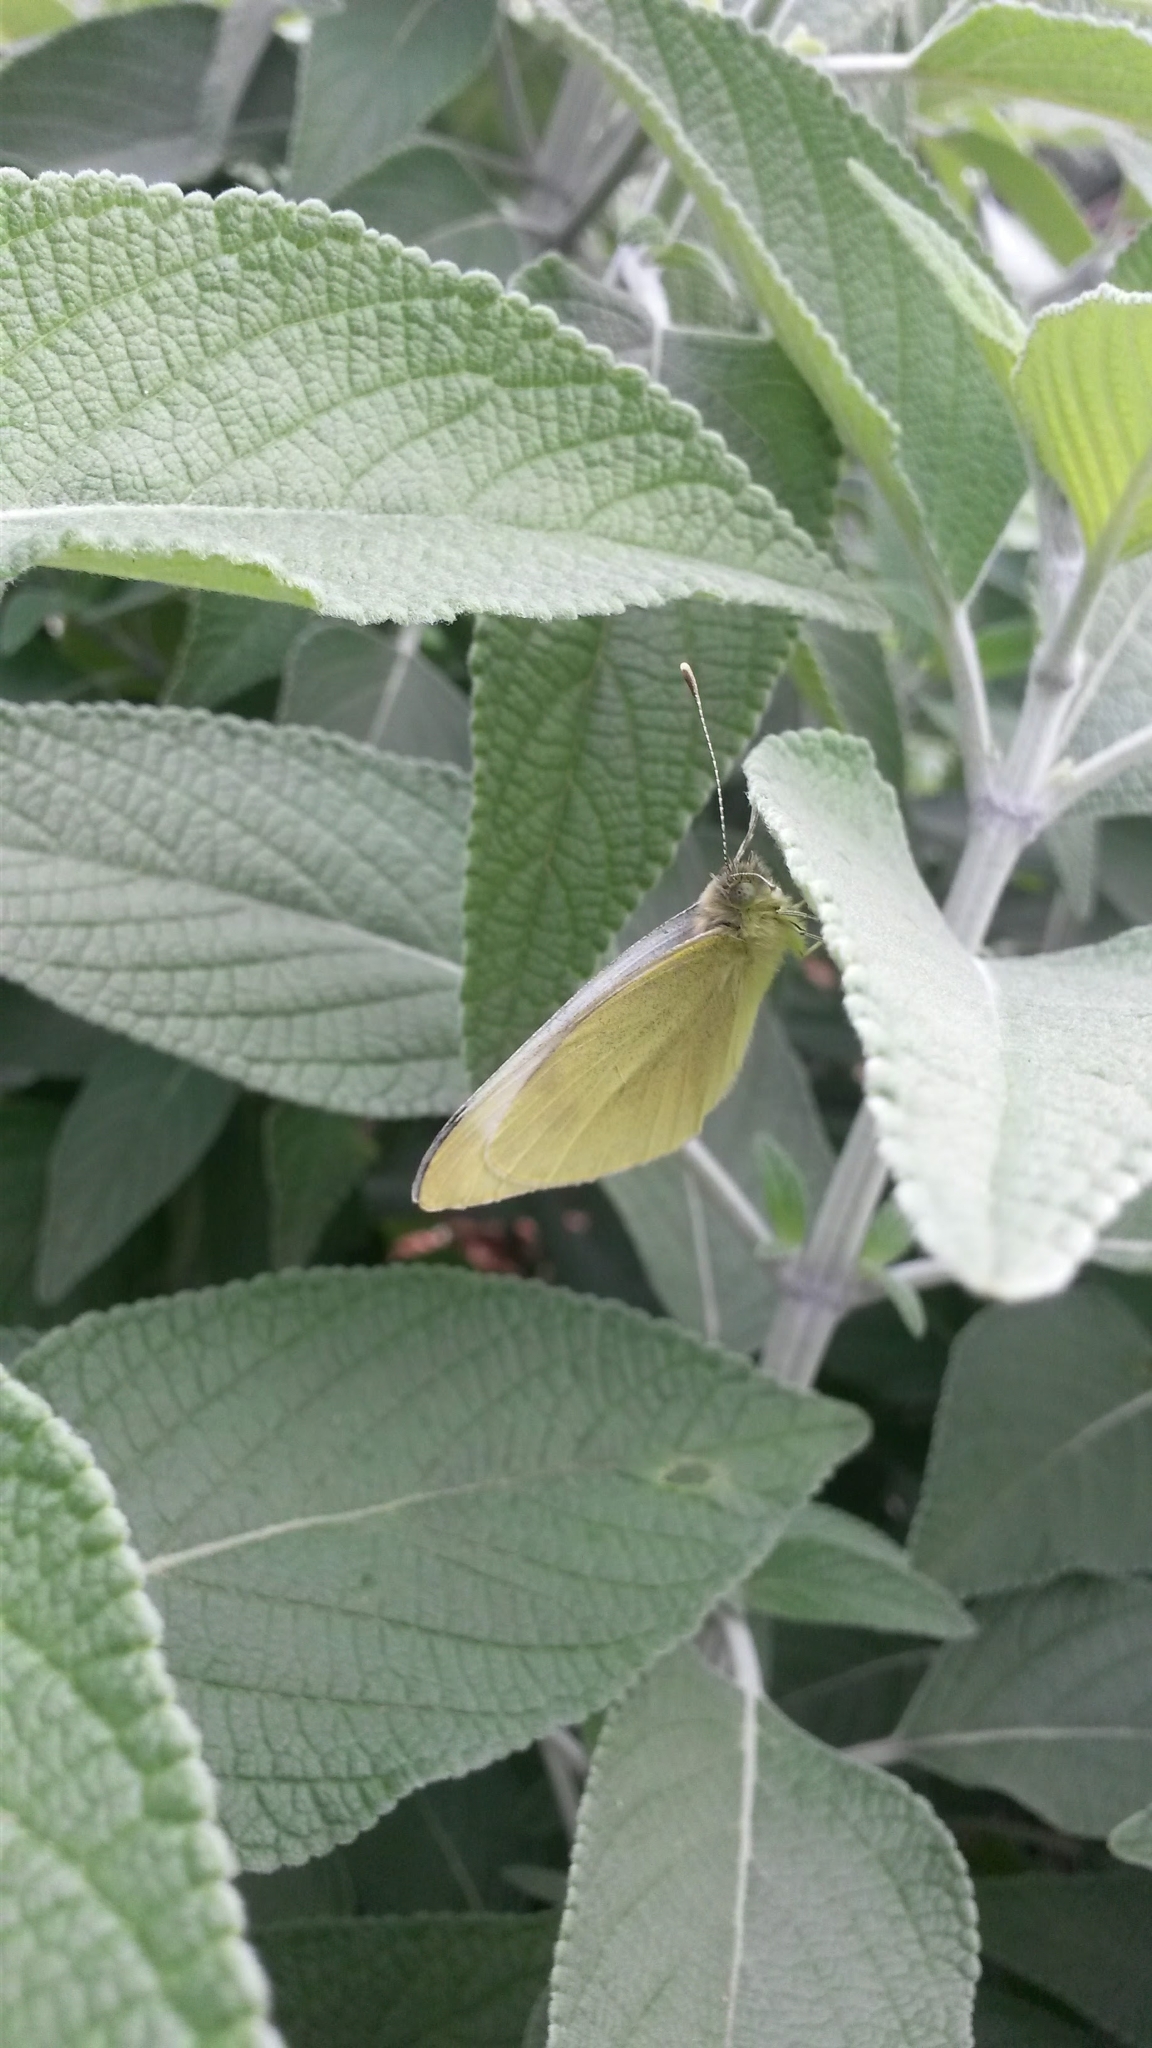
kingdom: Animalia
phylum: Arthropoda
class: Insecta
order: Lepidoptera
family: Pieridae
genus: Pieris
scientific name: Pieris rapae
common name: Small white
